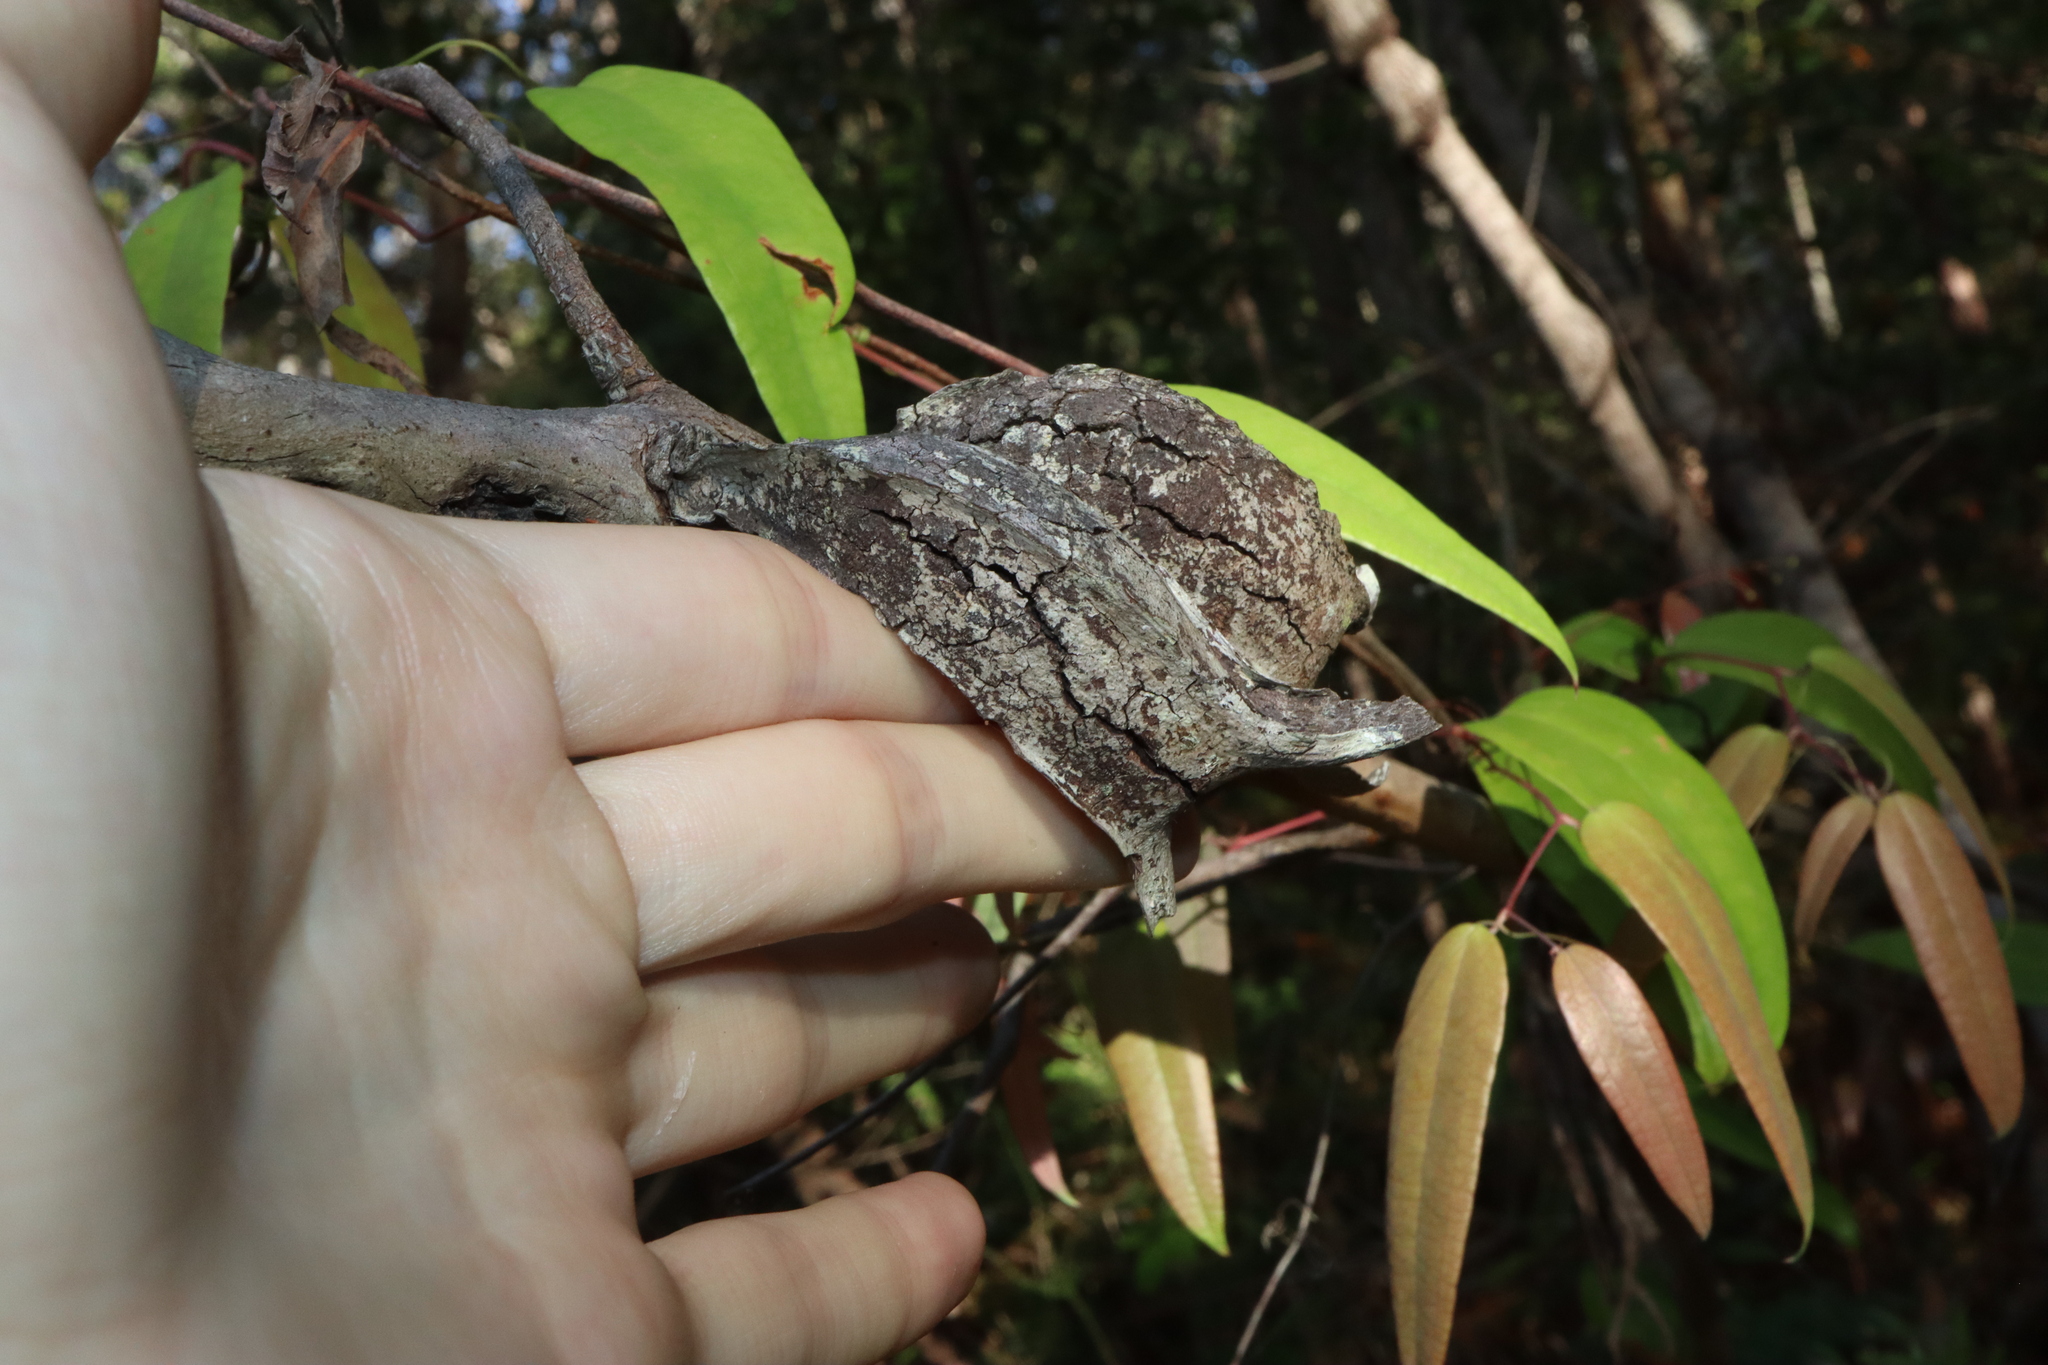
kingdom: Animalia
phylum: Arthropoda
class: Insecta
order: Hemiptera
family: Eriococcidae
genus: Apiomorpha
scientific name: Apiomorpha duplex
